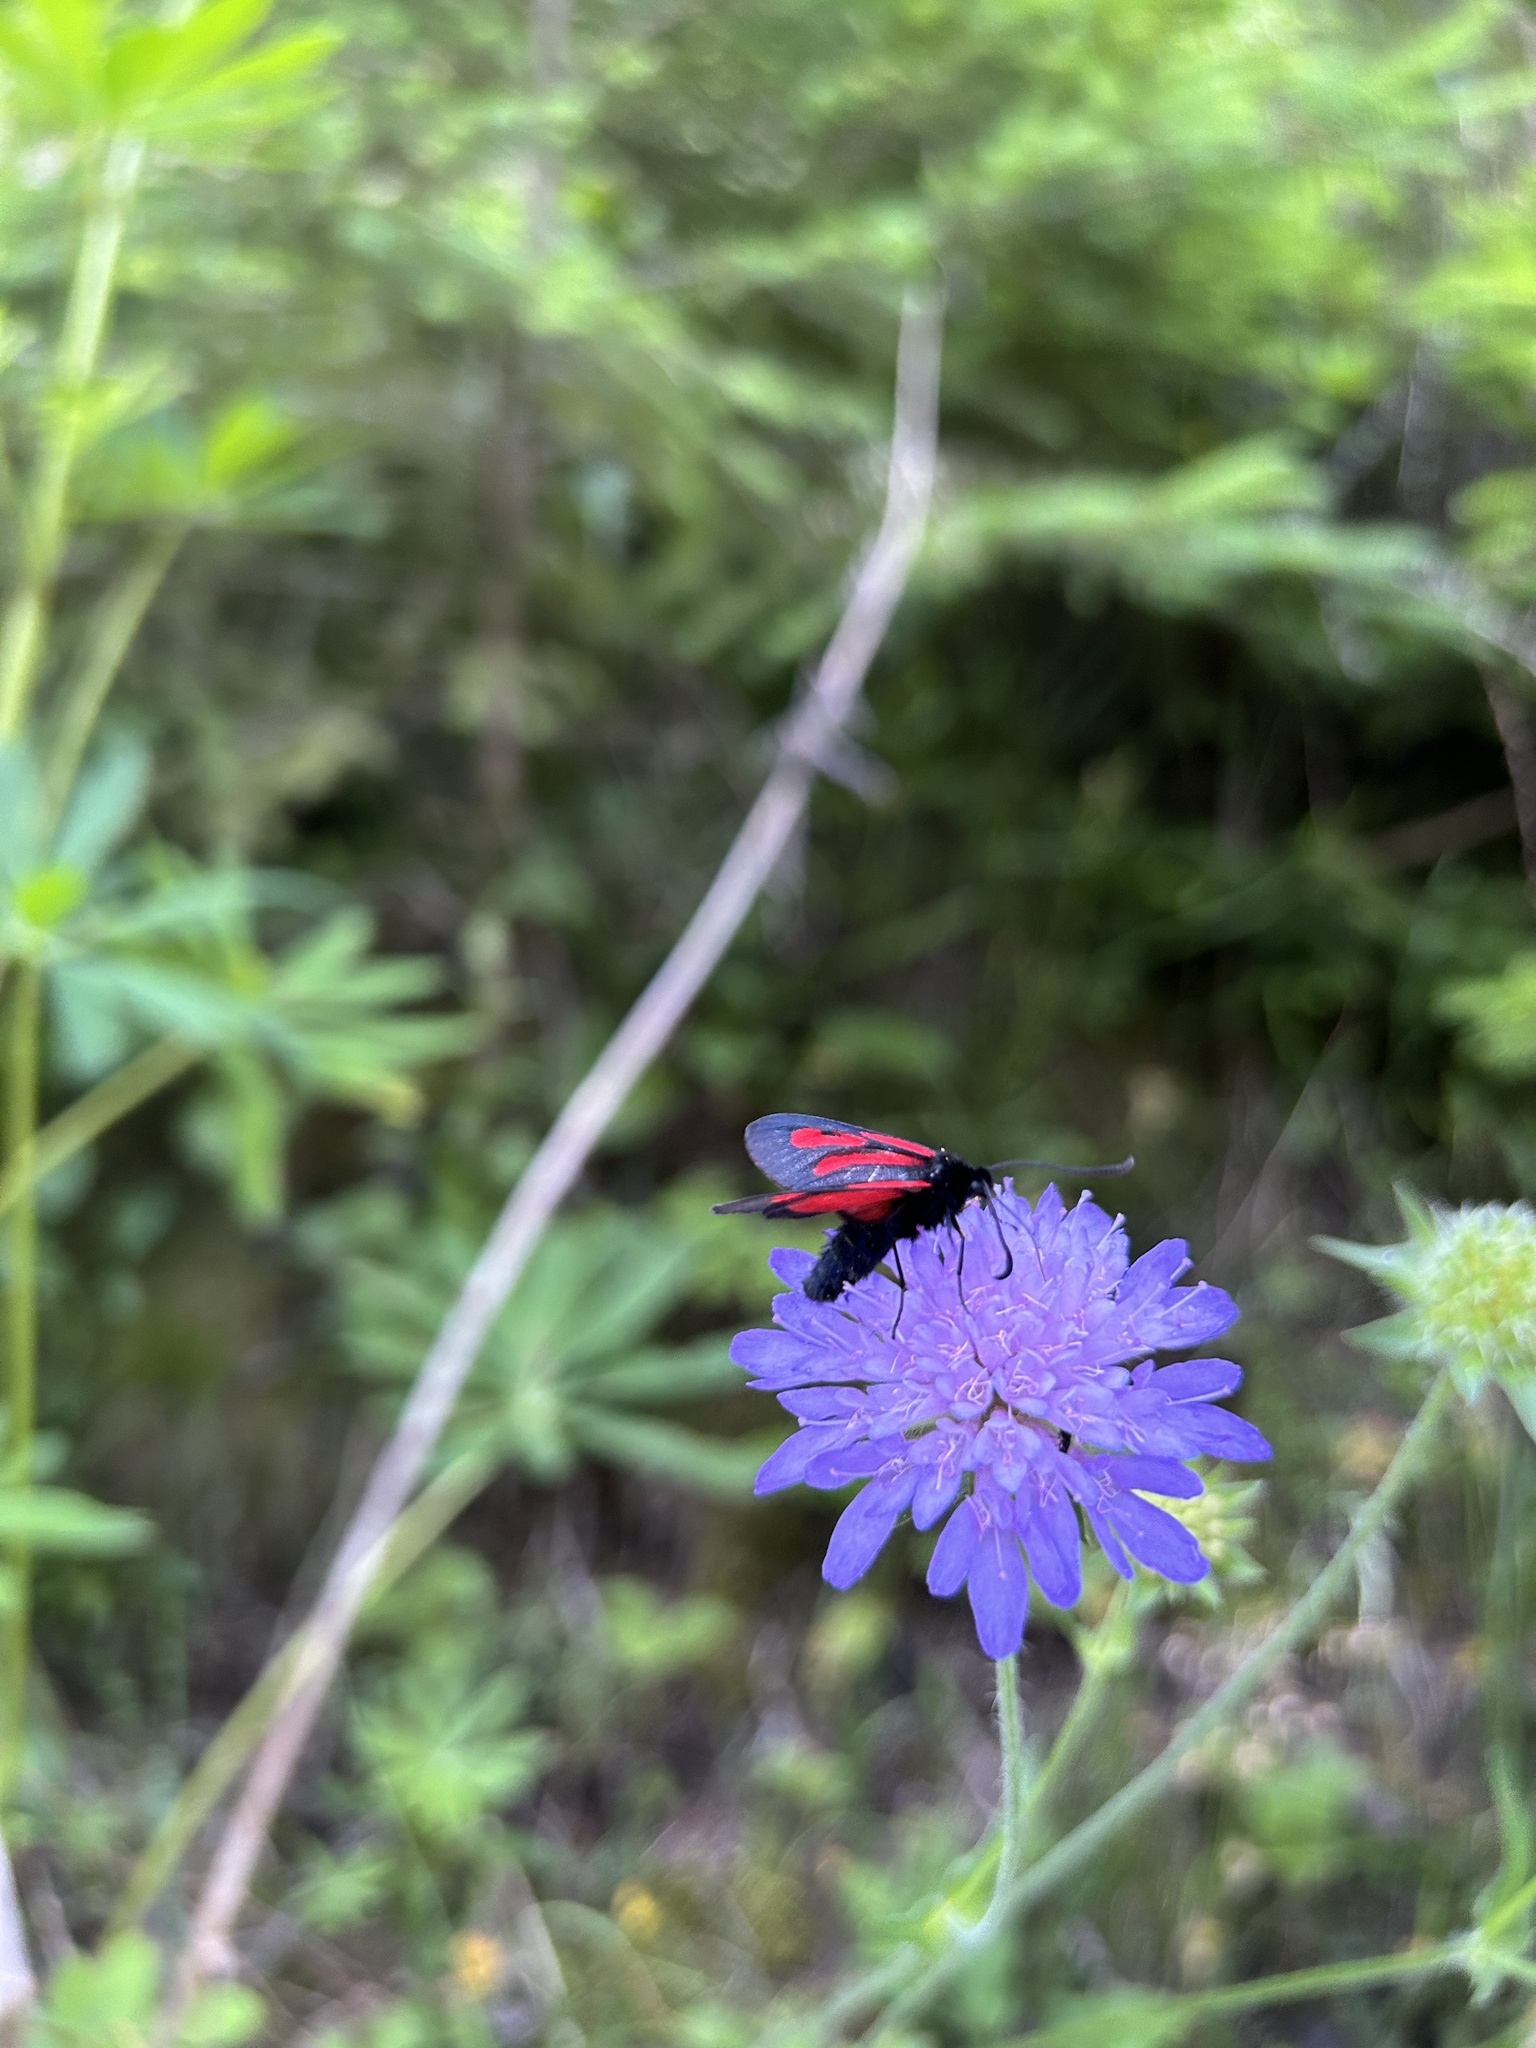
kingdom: Animalia
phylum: Arthropoda
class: Insecta
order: Lepidoptera
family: Zygaenidae
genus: Zygaena
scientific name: Zygaena osterodensis
